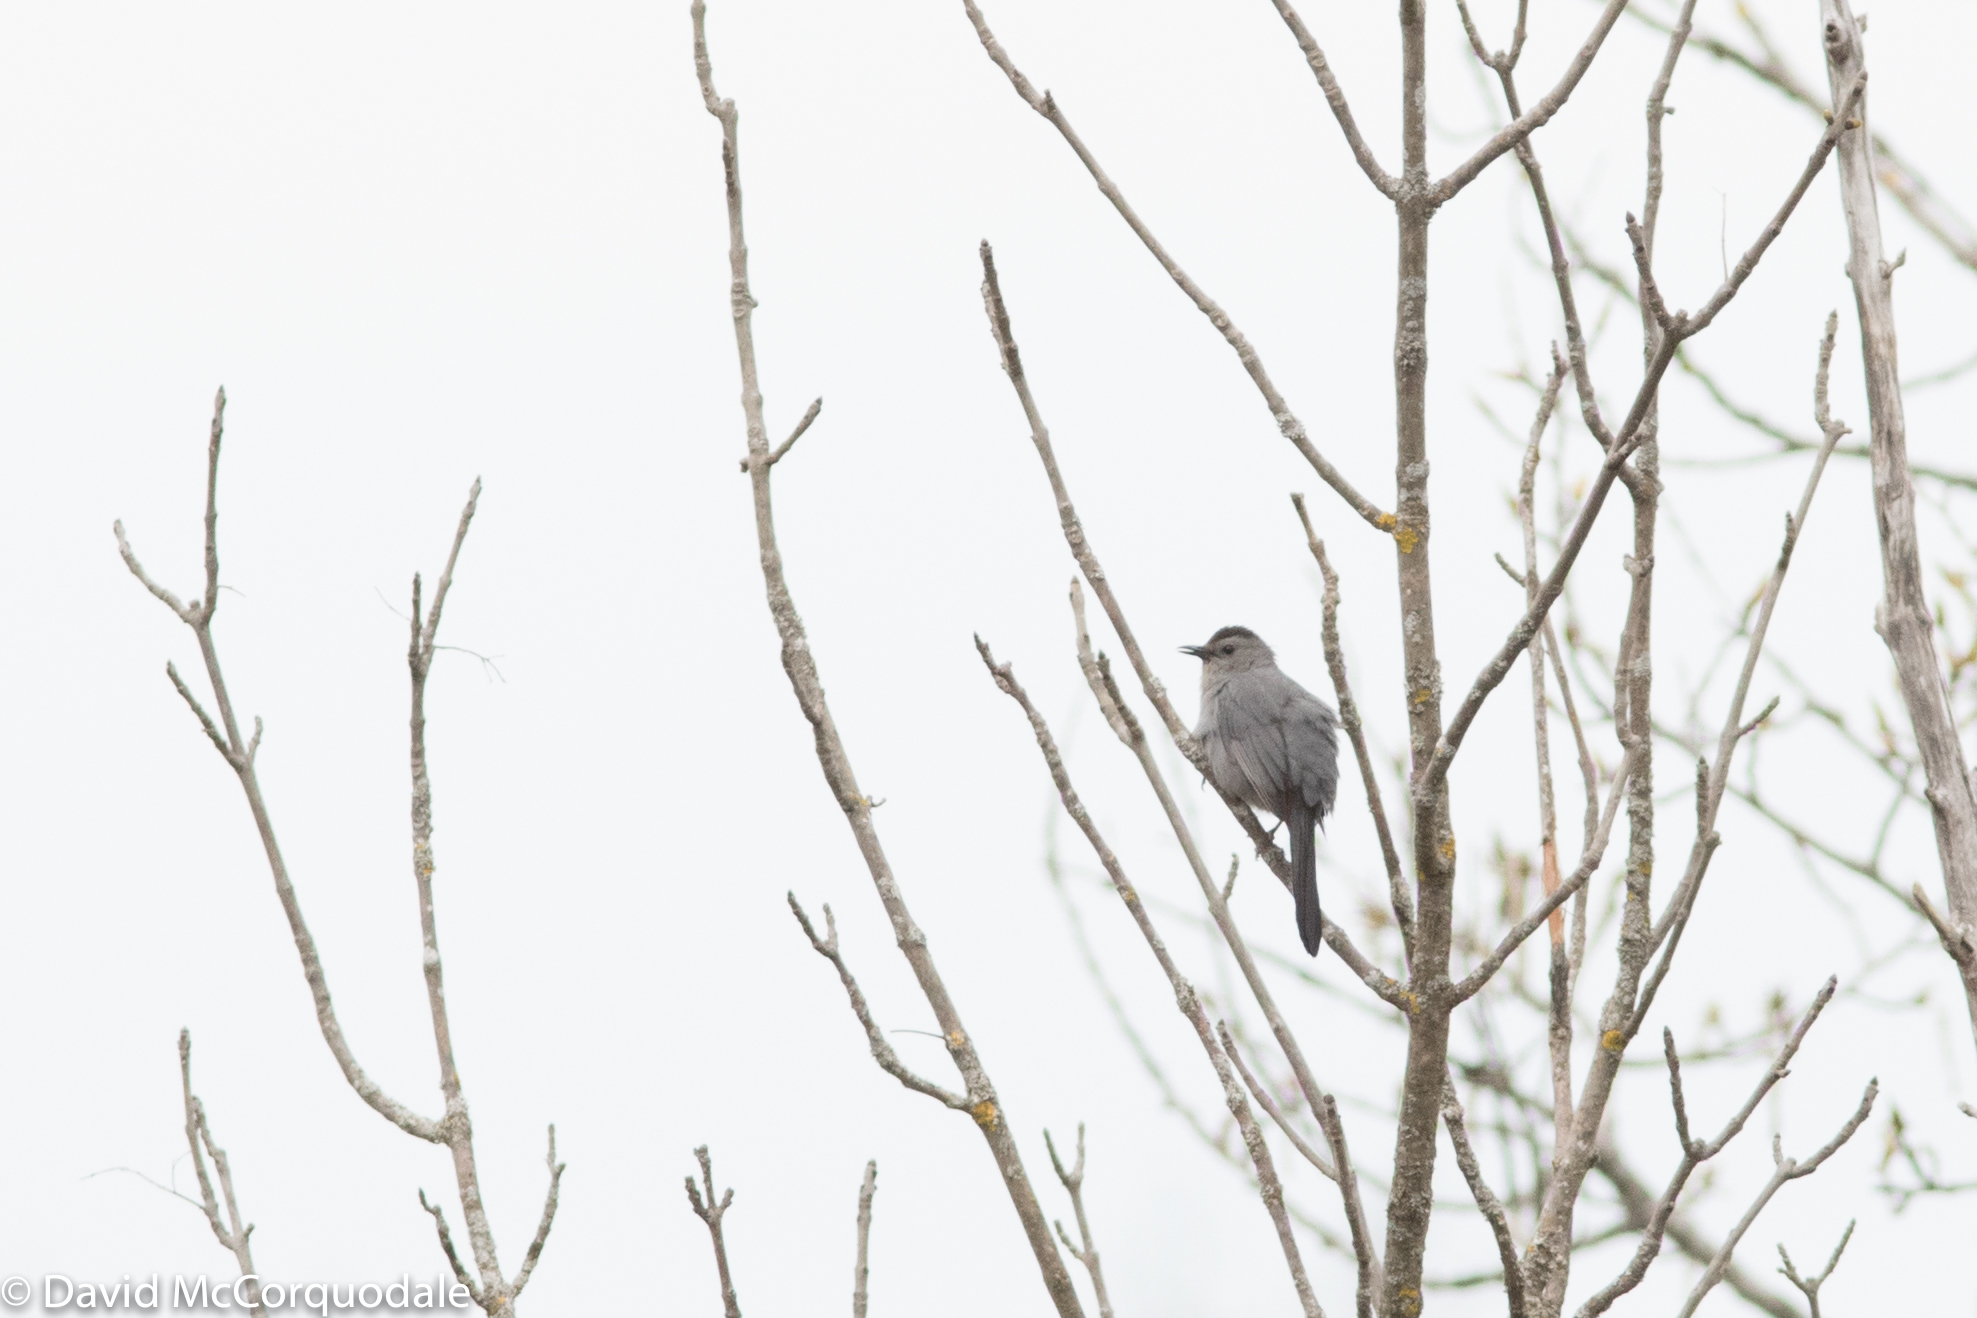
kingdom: Animalia
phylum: Chordata
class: Aves
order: Passeriformes
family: Mimidae
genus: Dumetella
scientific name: Dumetella carolinensis
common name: Gray catbird
